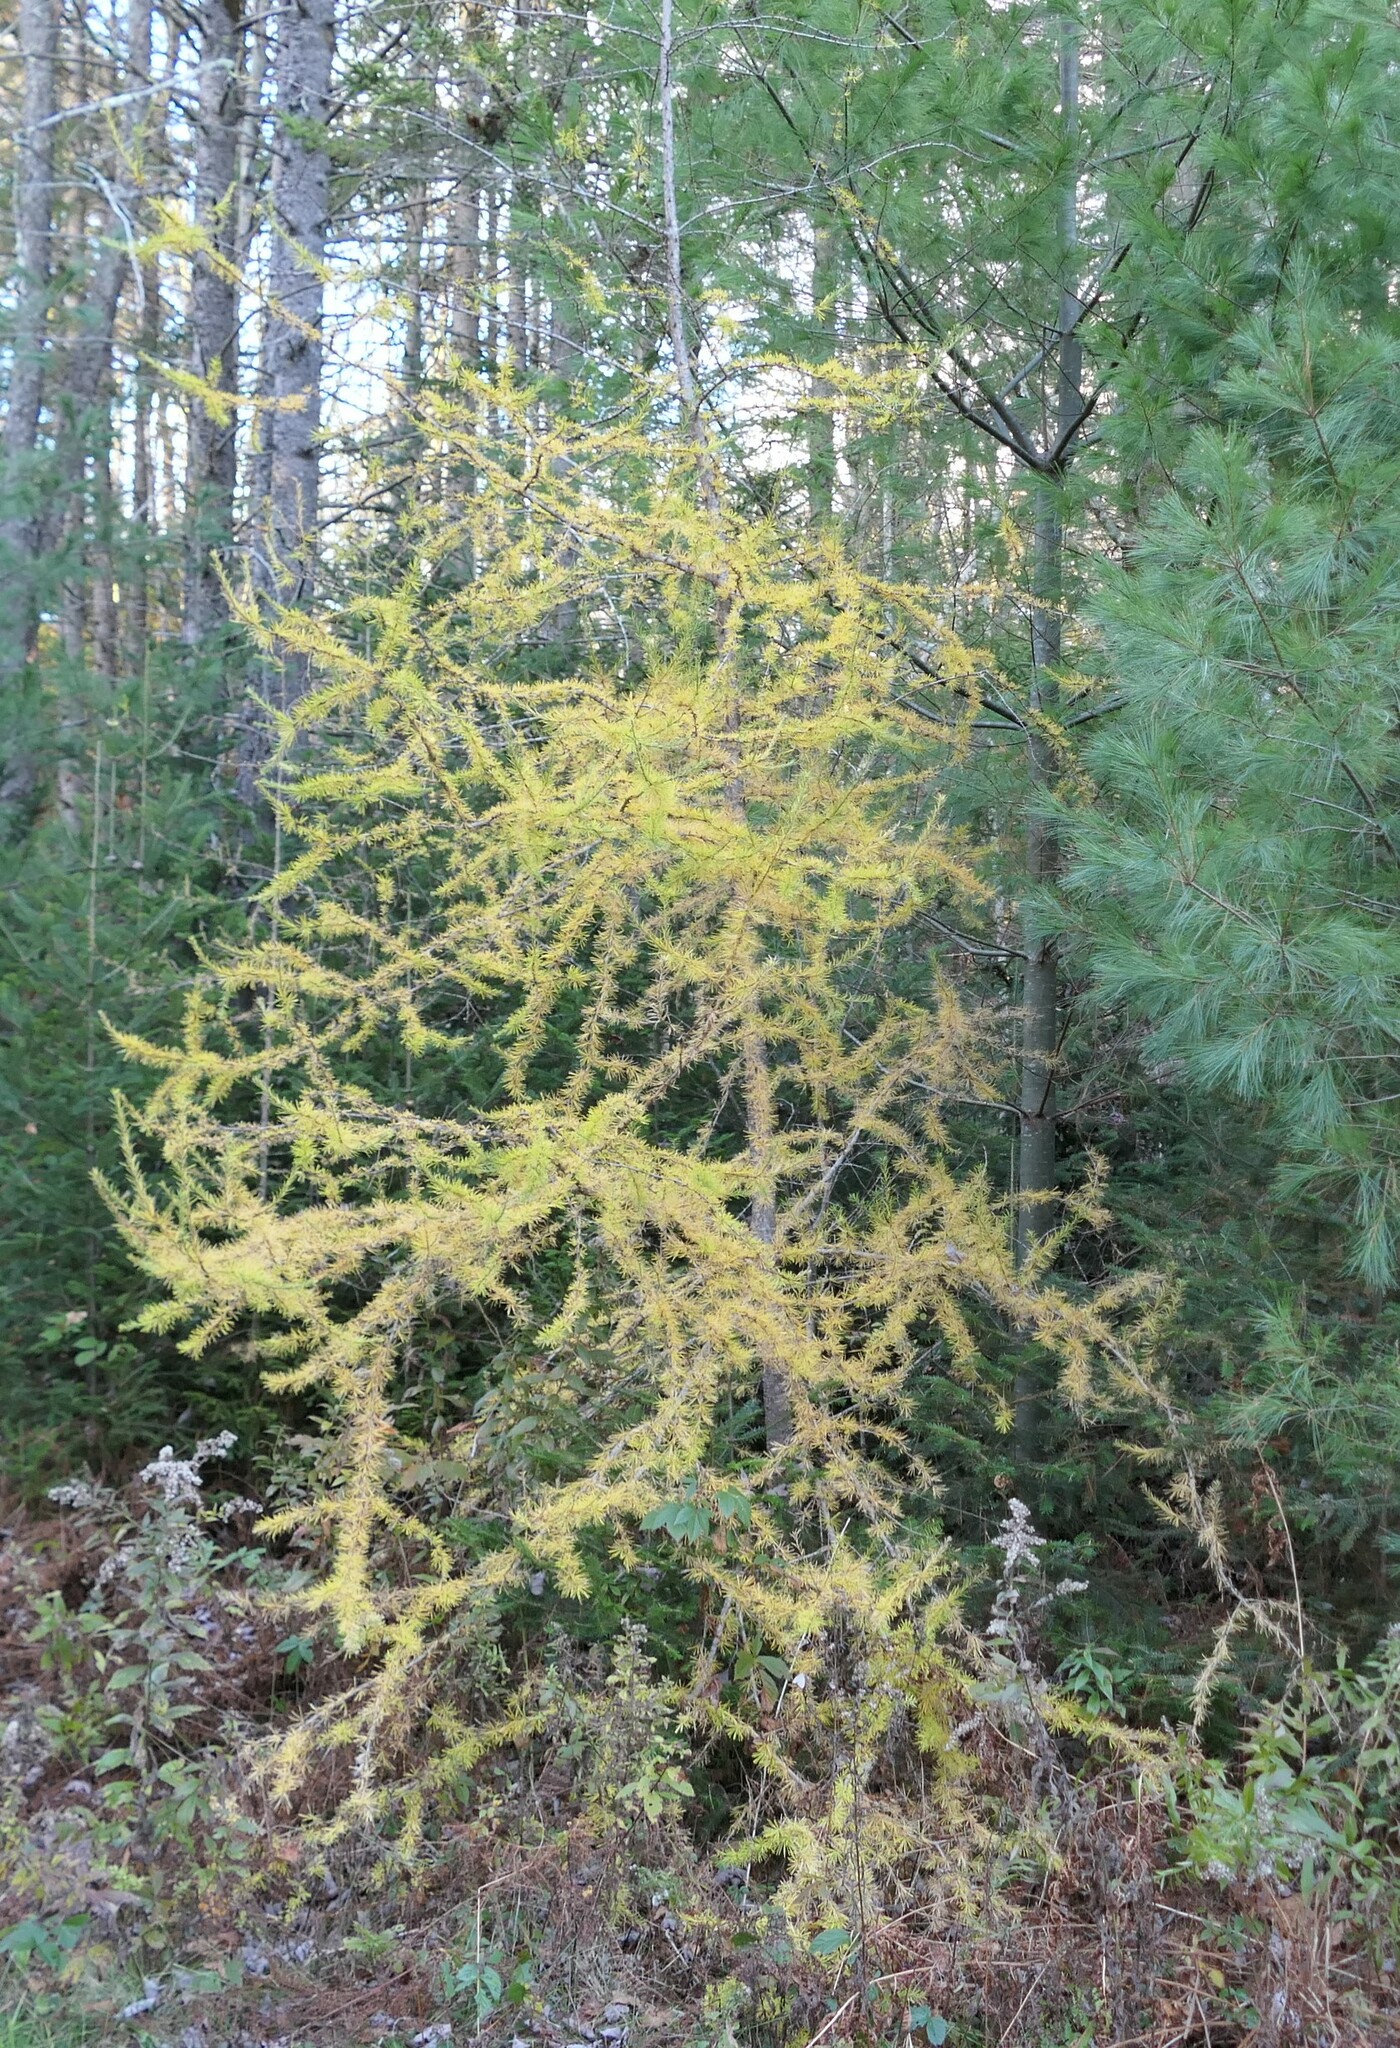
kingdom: Plantae
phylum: Tracheophyta
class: Pinopsida
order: Pinales
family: Pinaceae
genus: Larix
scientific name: Larix laricina
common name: American larch
